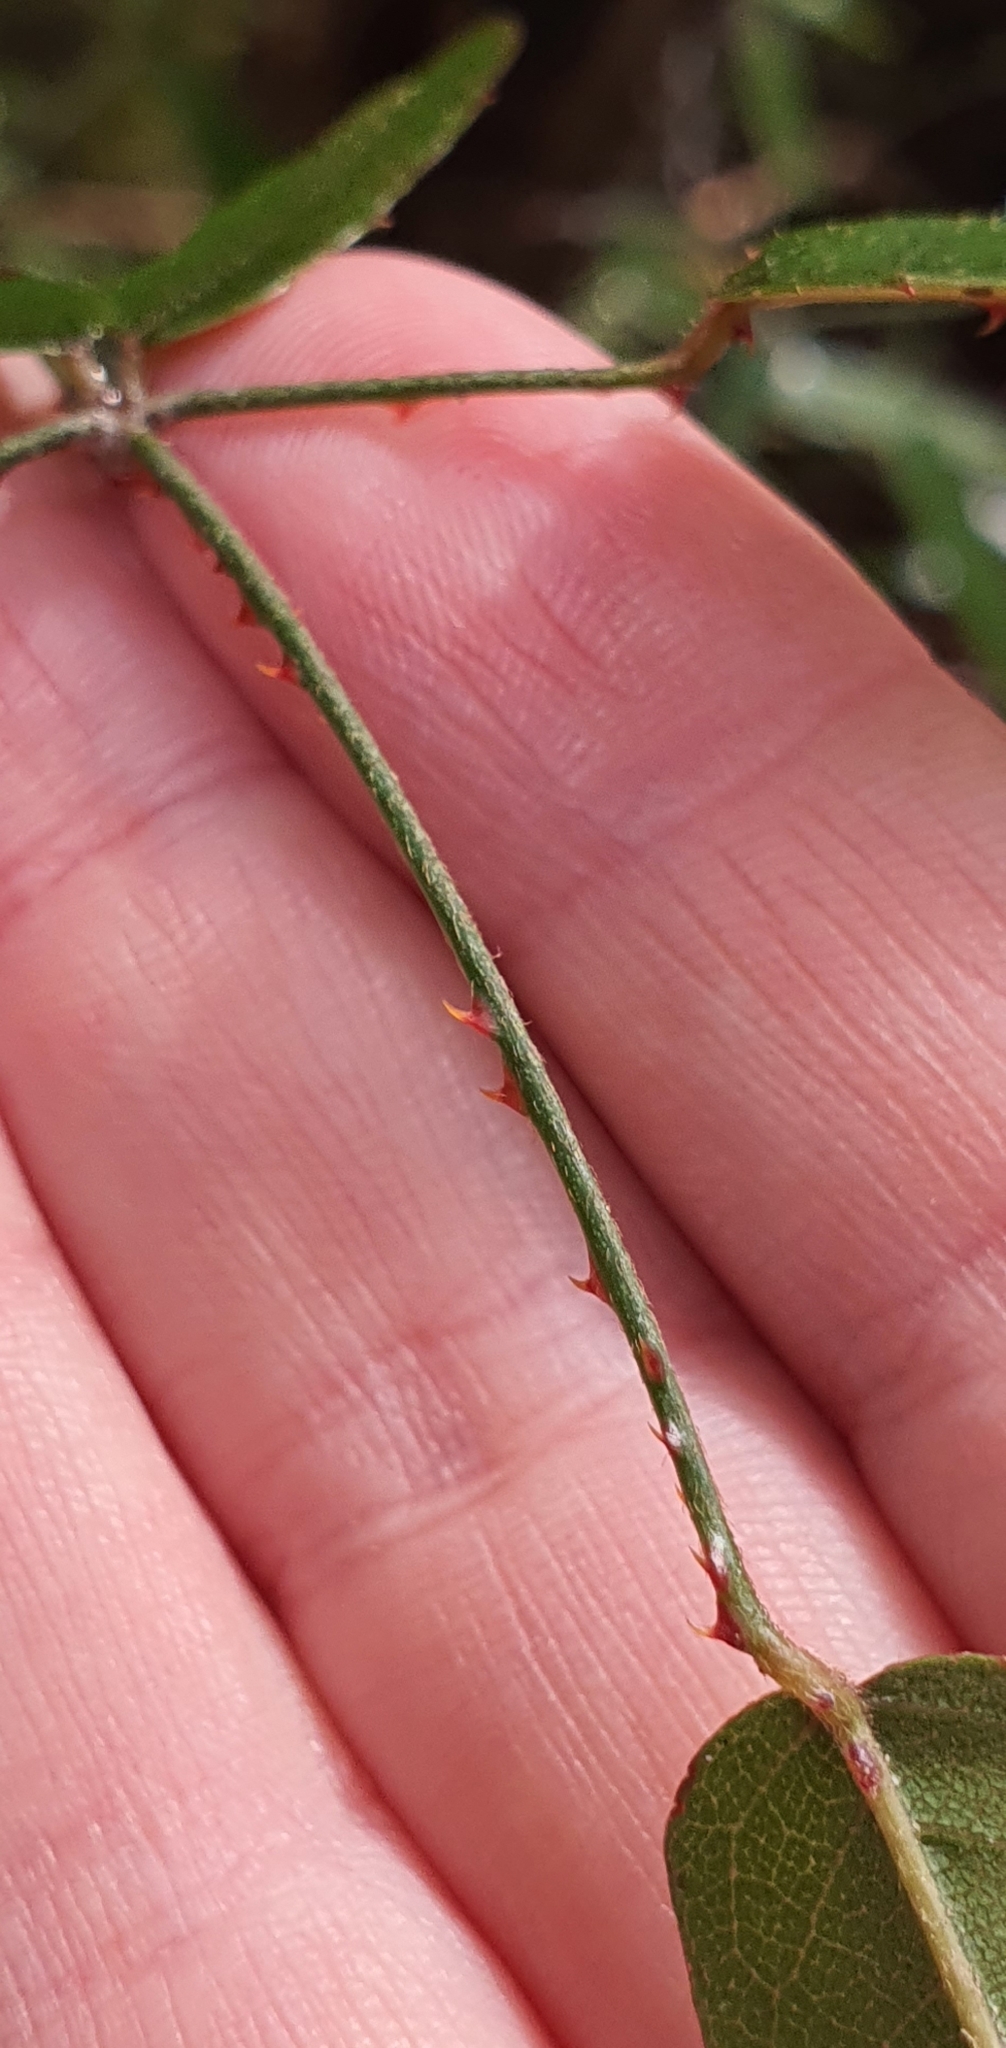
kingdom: Plantae
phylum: Tracheophyta
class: Magnoliopsida
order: Rosales
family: Rosaceae
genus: Rubus
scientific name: Rubus schmidelioides
